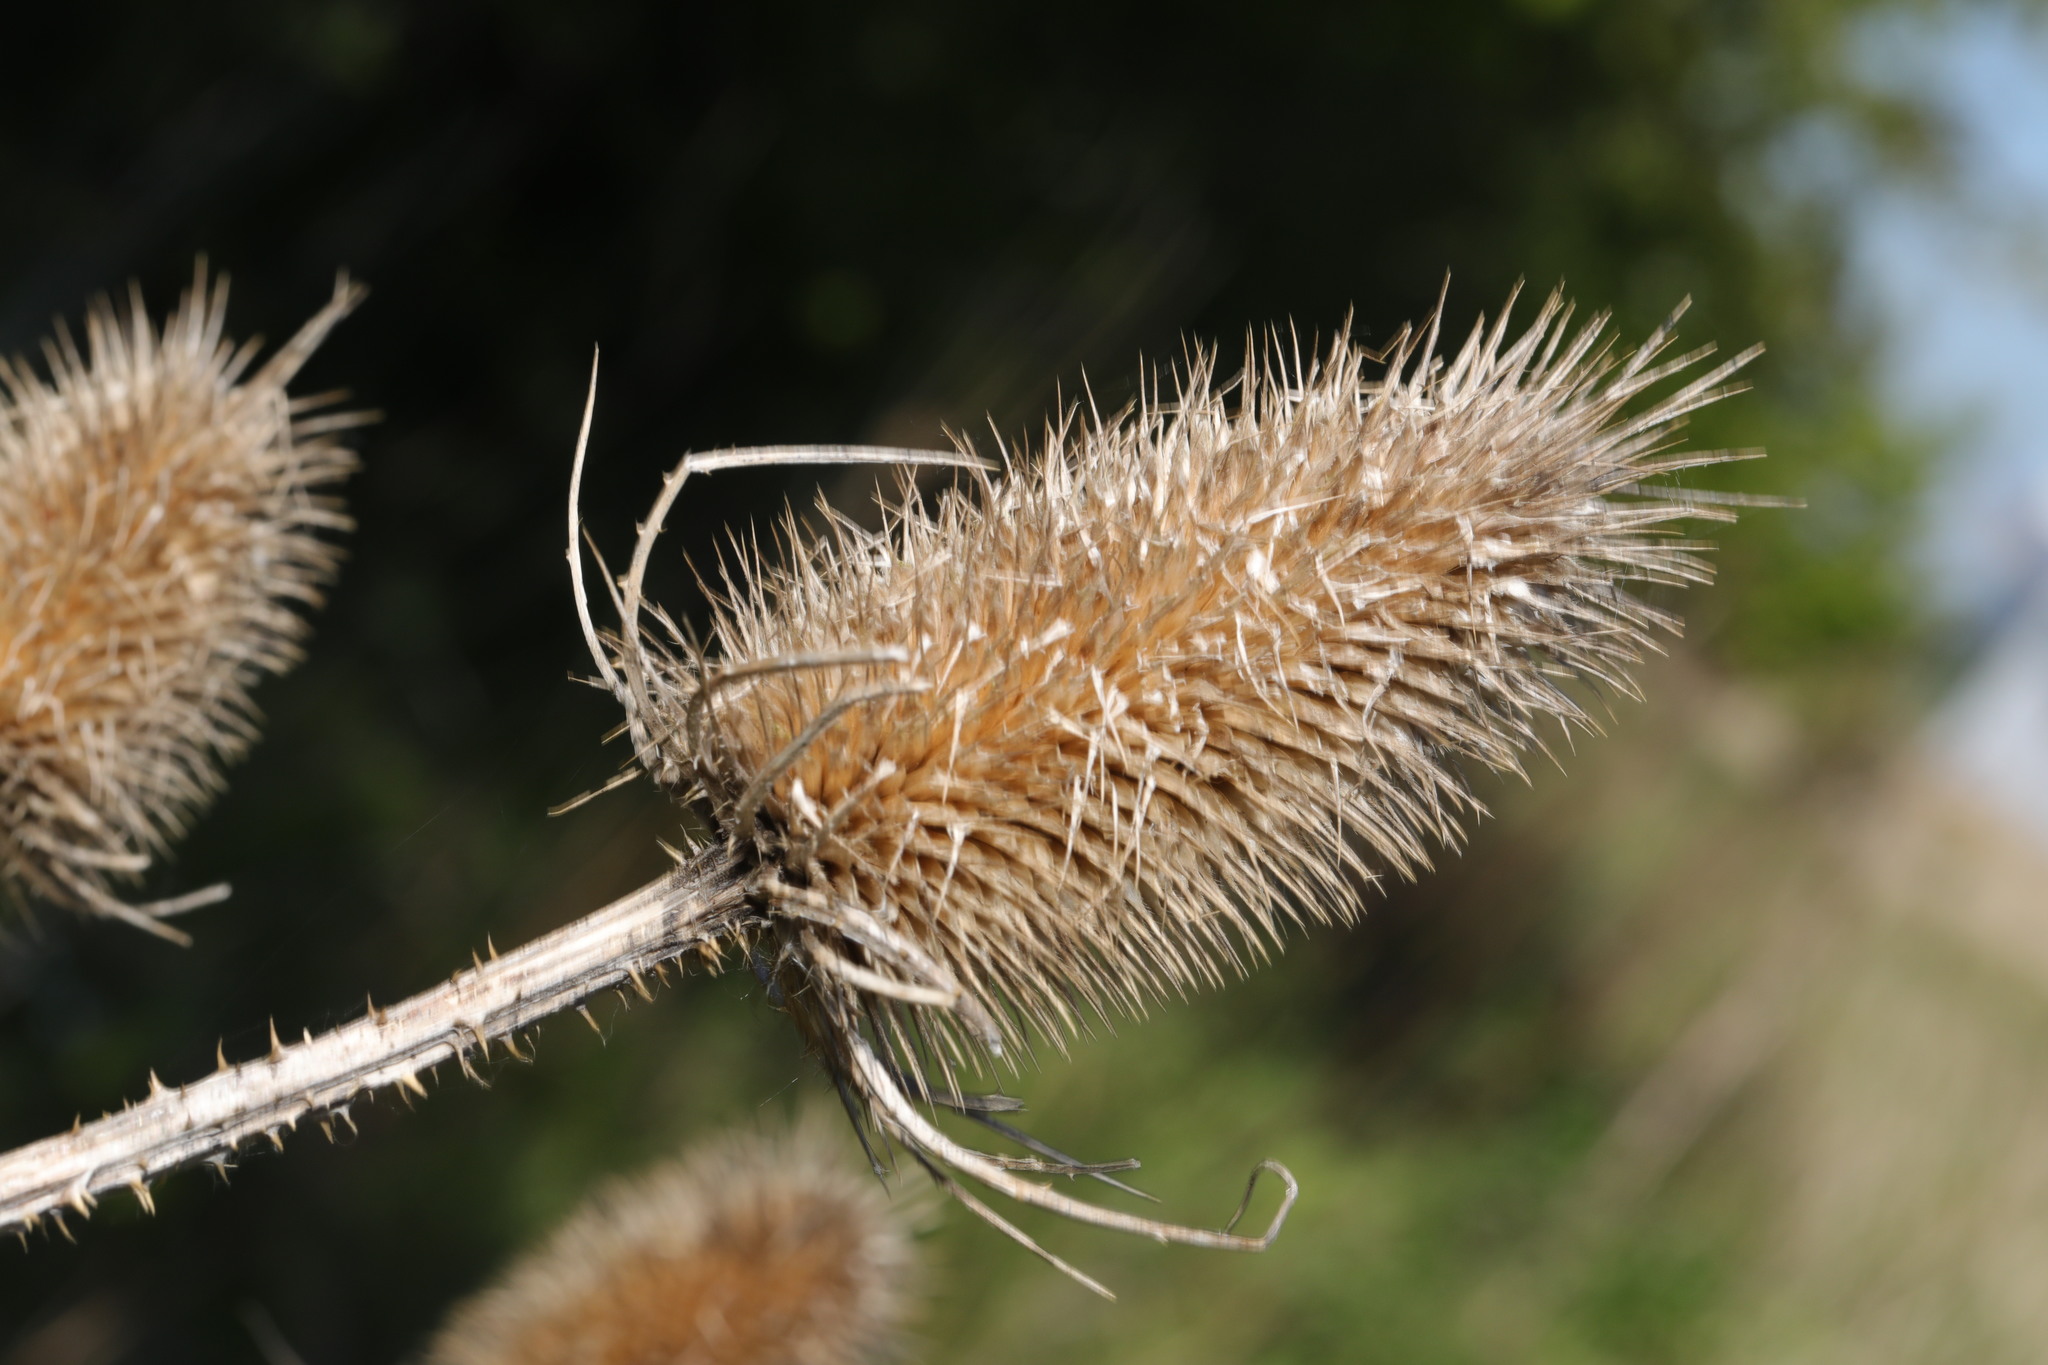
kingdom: Plantae
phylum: Tracheophyta
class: Magnoliopsida
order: Dipsacales
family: Caprifoliaceae
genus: Dipsacus
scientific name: Dipsacus fullonum
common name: Teasel
